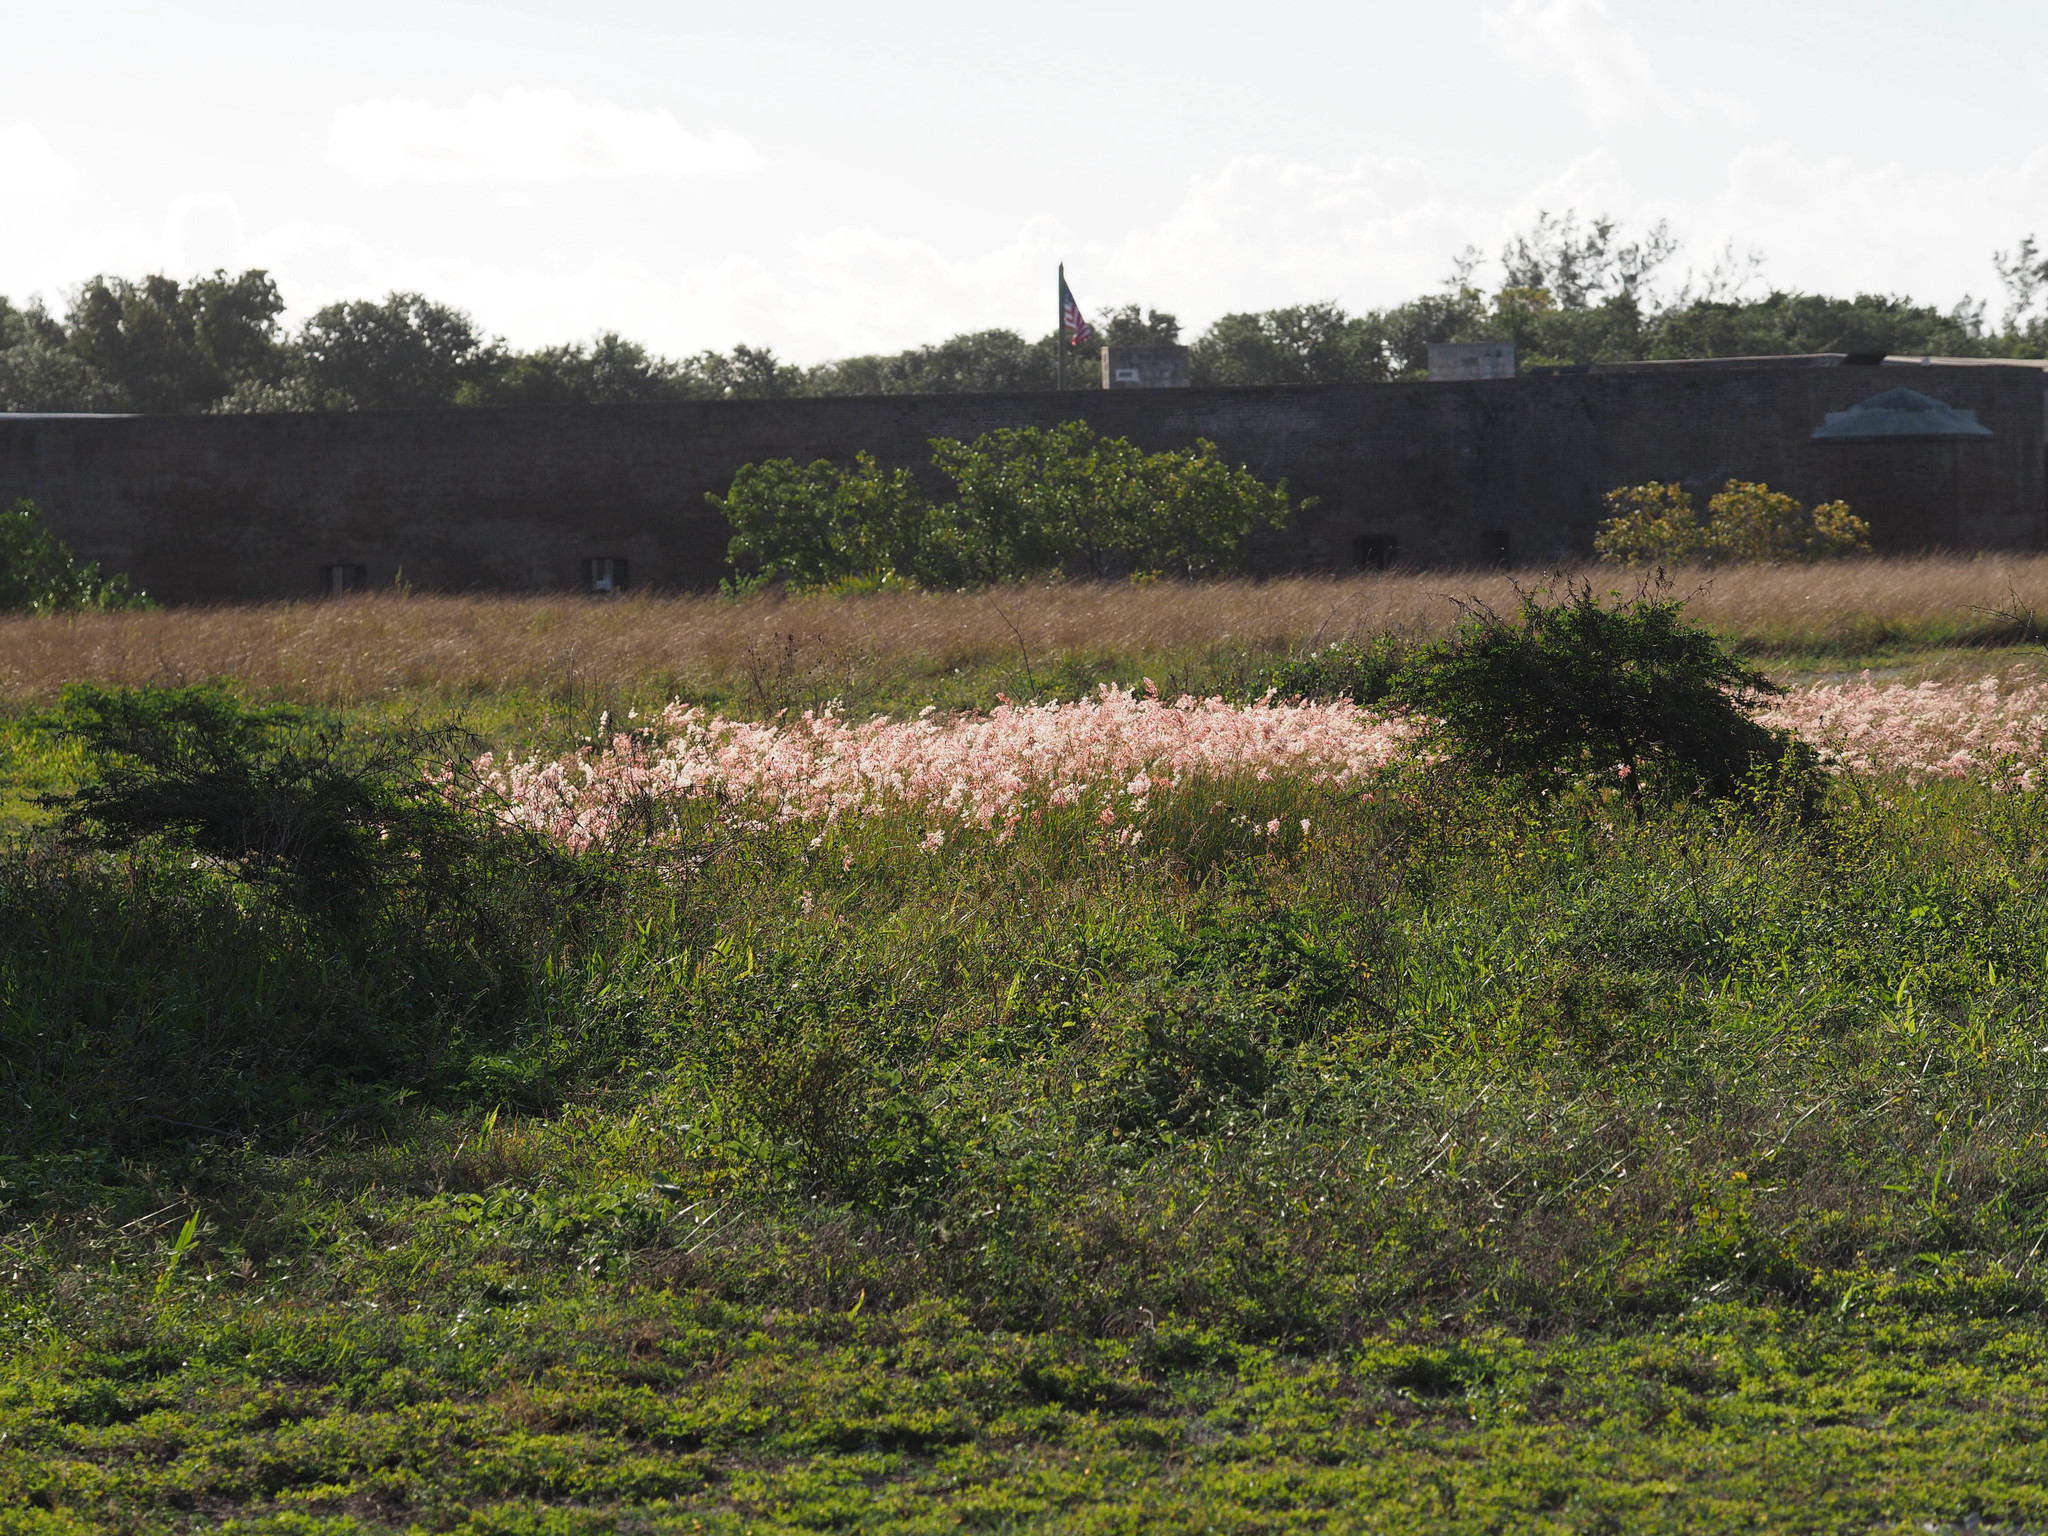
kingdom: Plantae
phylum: Tracheophyta
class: Liliopsida
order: Poales
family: Poaceae
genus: Melinis
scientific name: Melinis repens
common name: Rose natal grass
